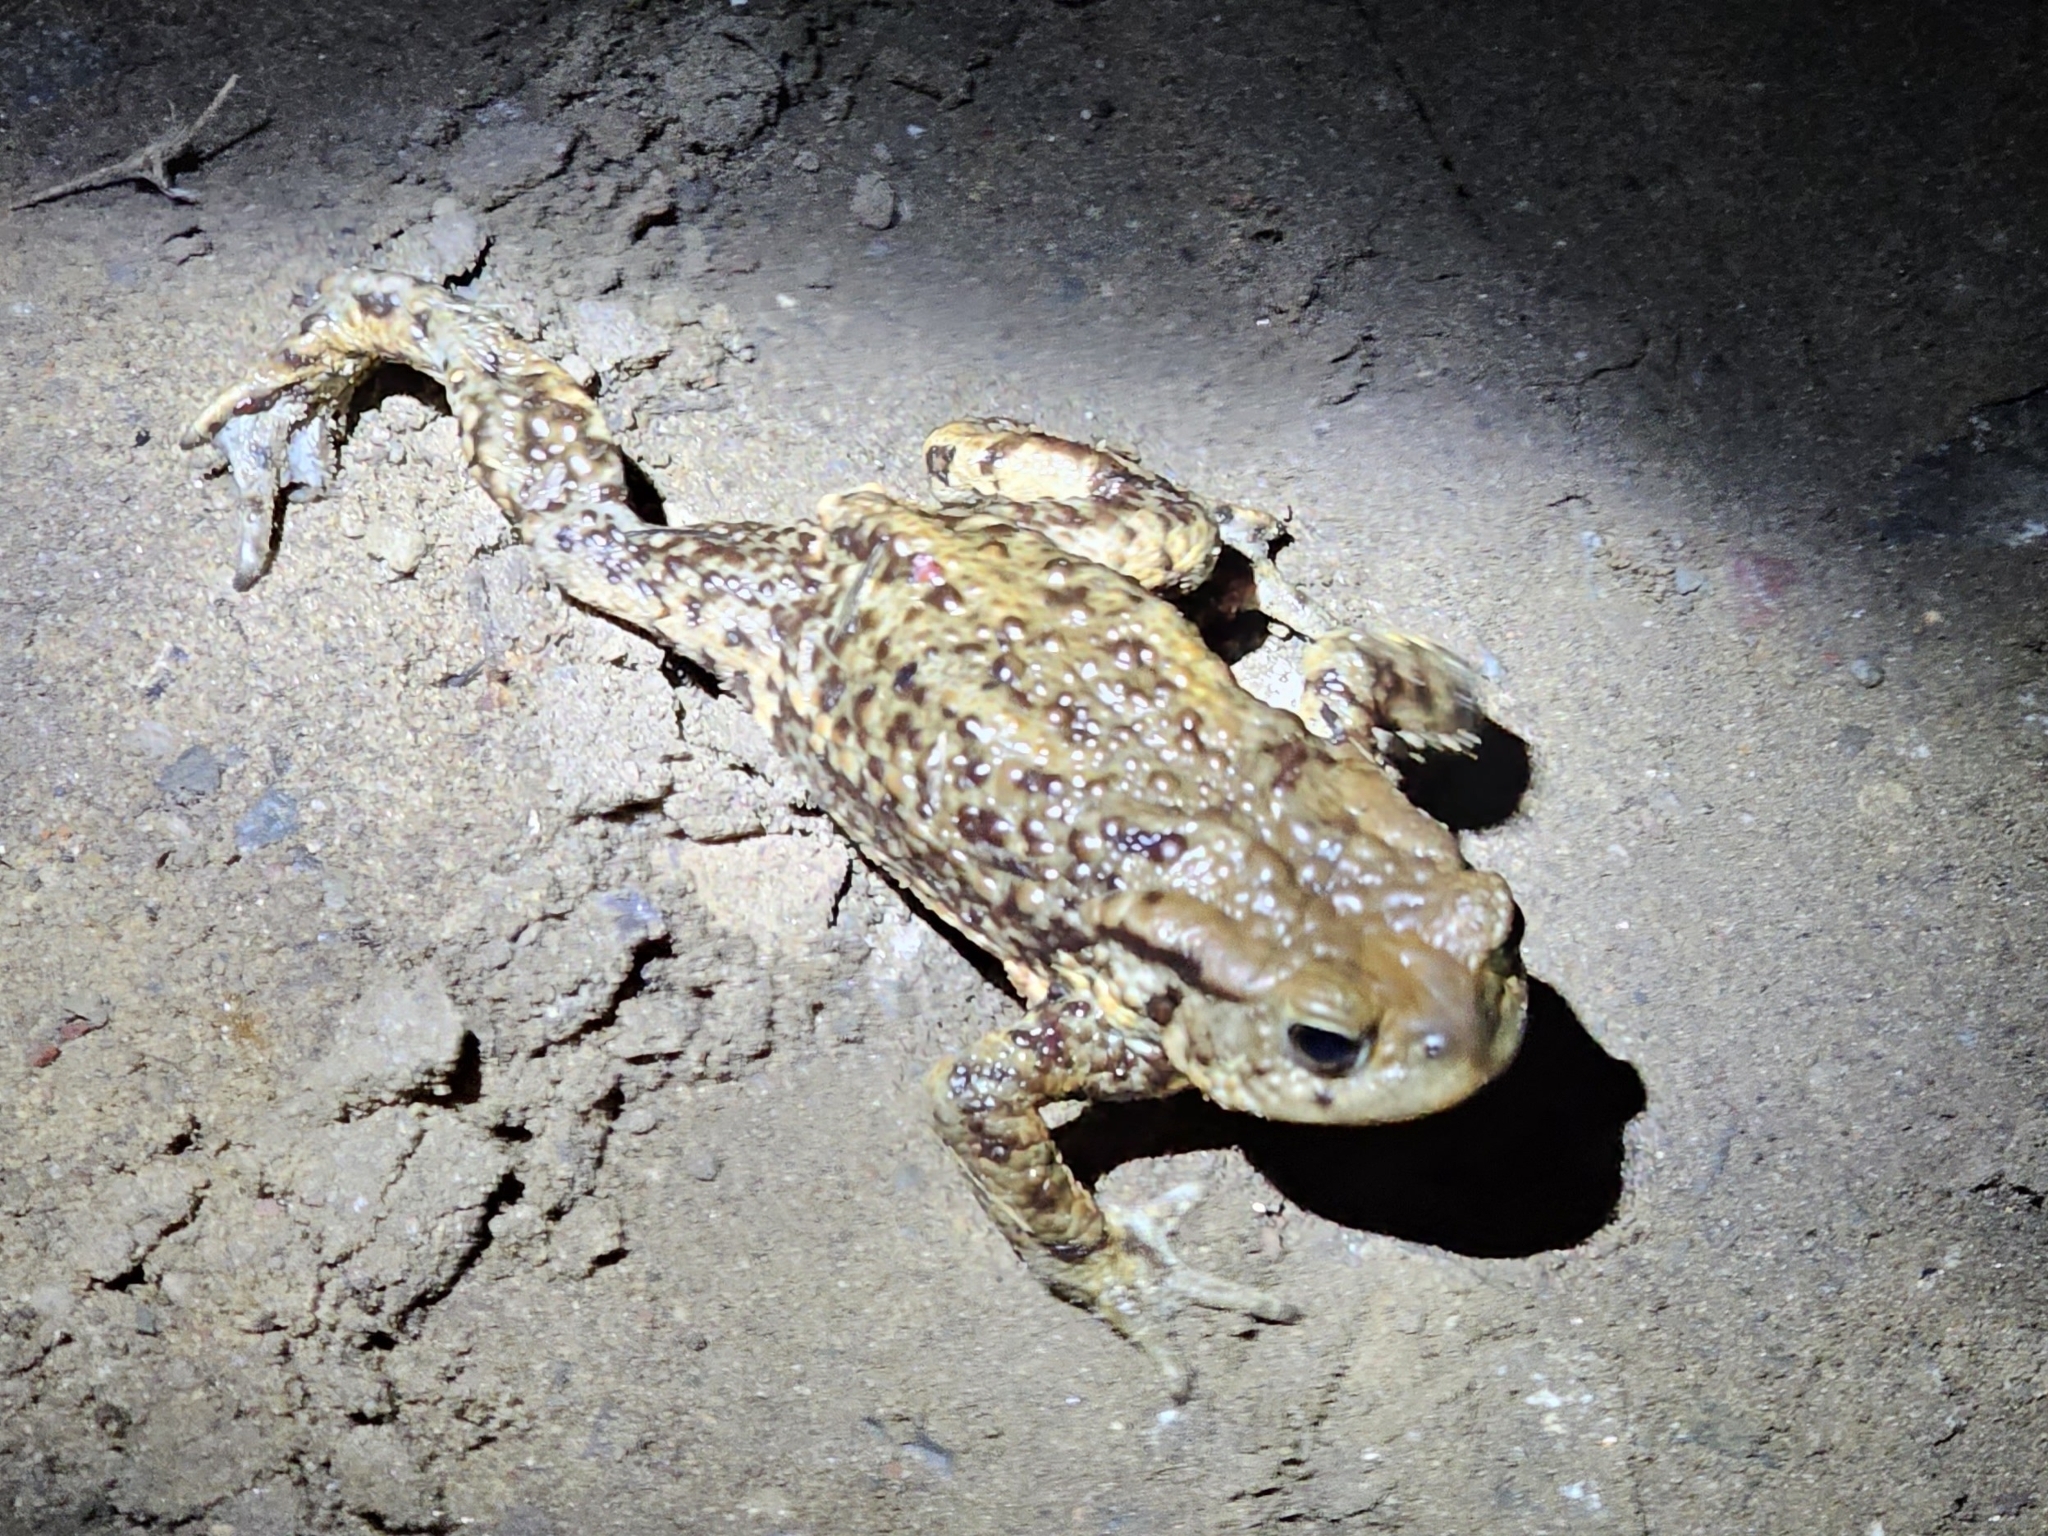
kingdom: Animalia
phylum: Chordata
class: Amphibia
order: Anura
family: Bufonidae
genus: Bufo
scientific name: Bufo bufo
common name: Common toad
